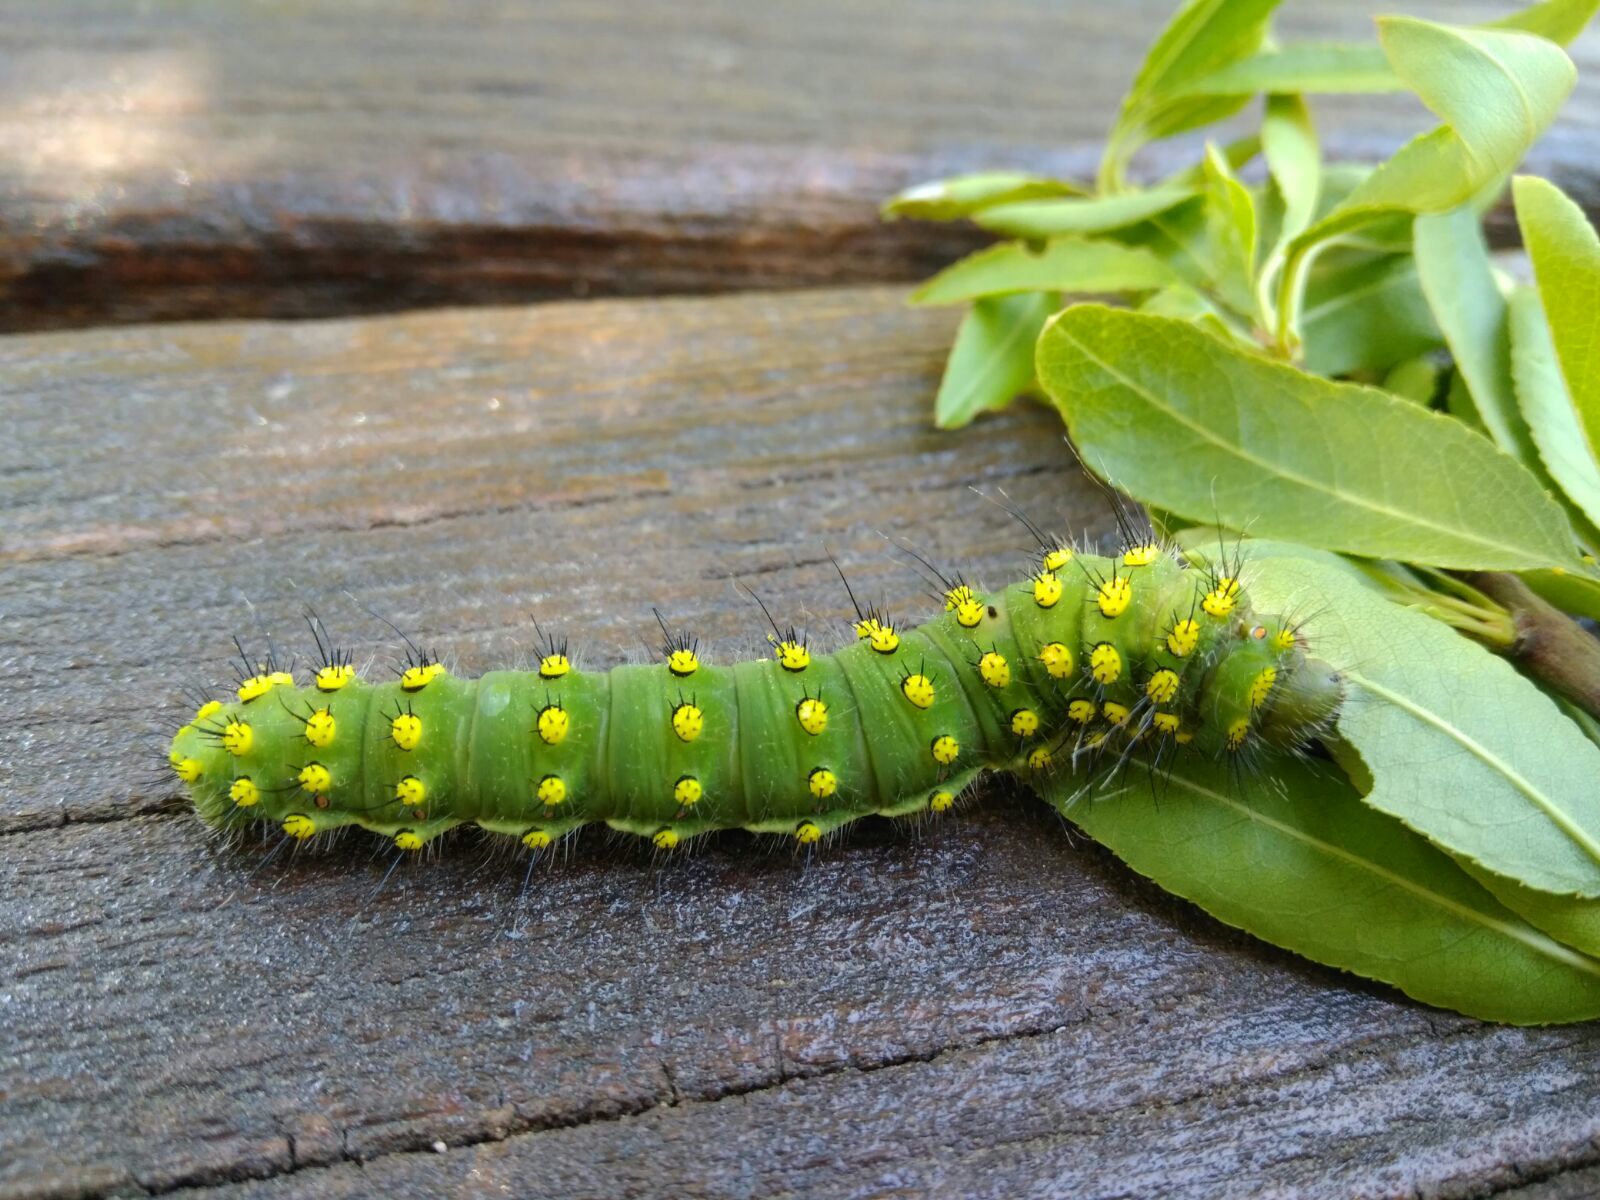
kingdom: Animalia
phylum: Arthropoda
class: Insecta
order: Lepidoptera
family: Saturniidae
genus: Saturnia
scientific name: Saturnia pavonia
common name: Emperor moth
